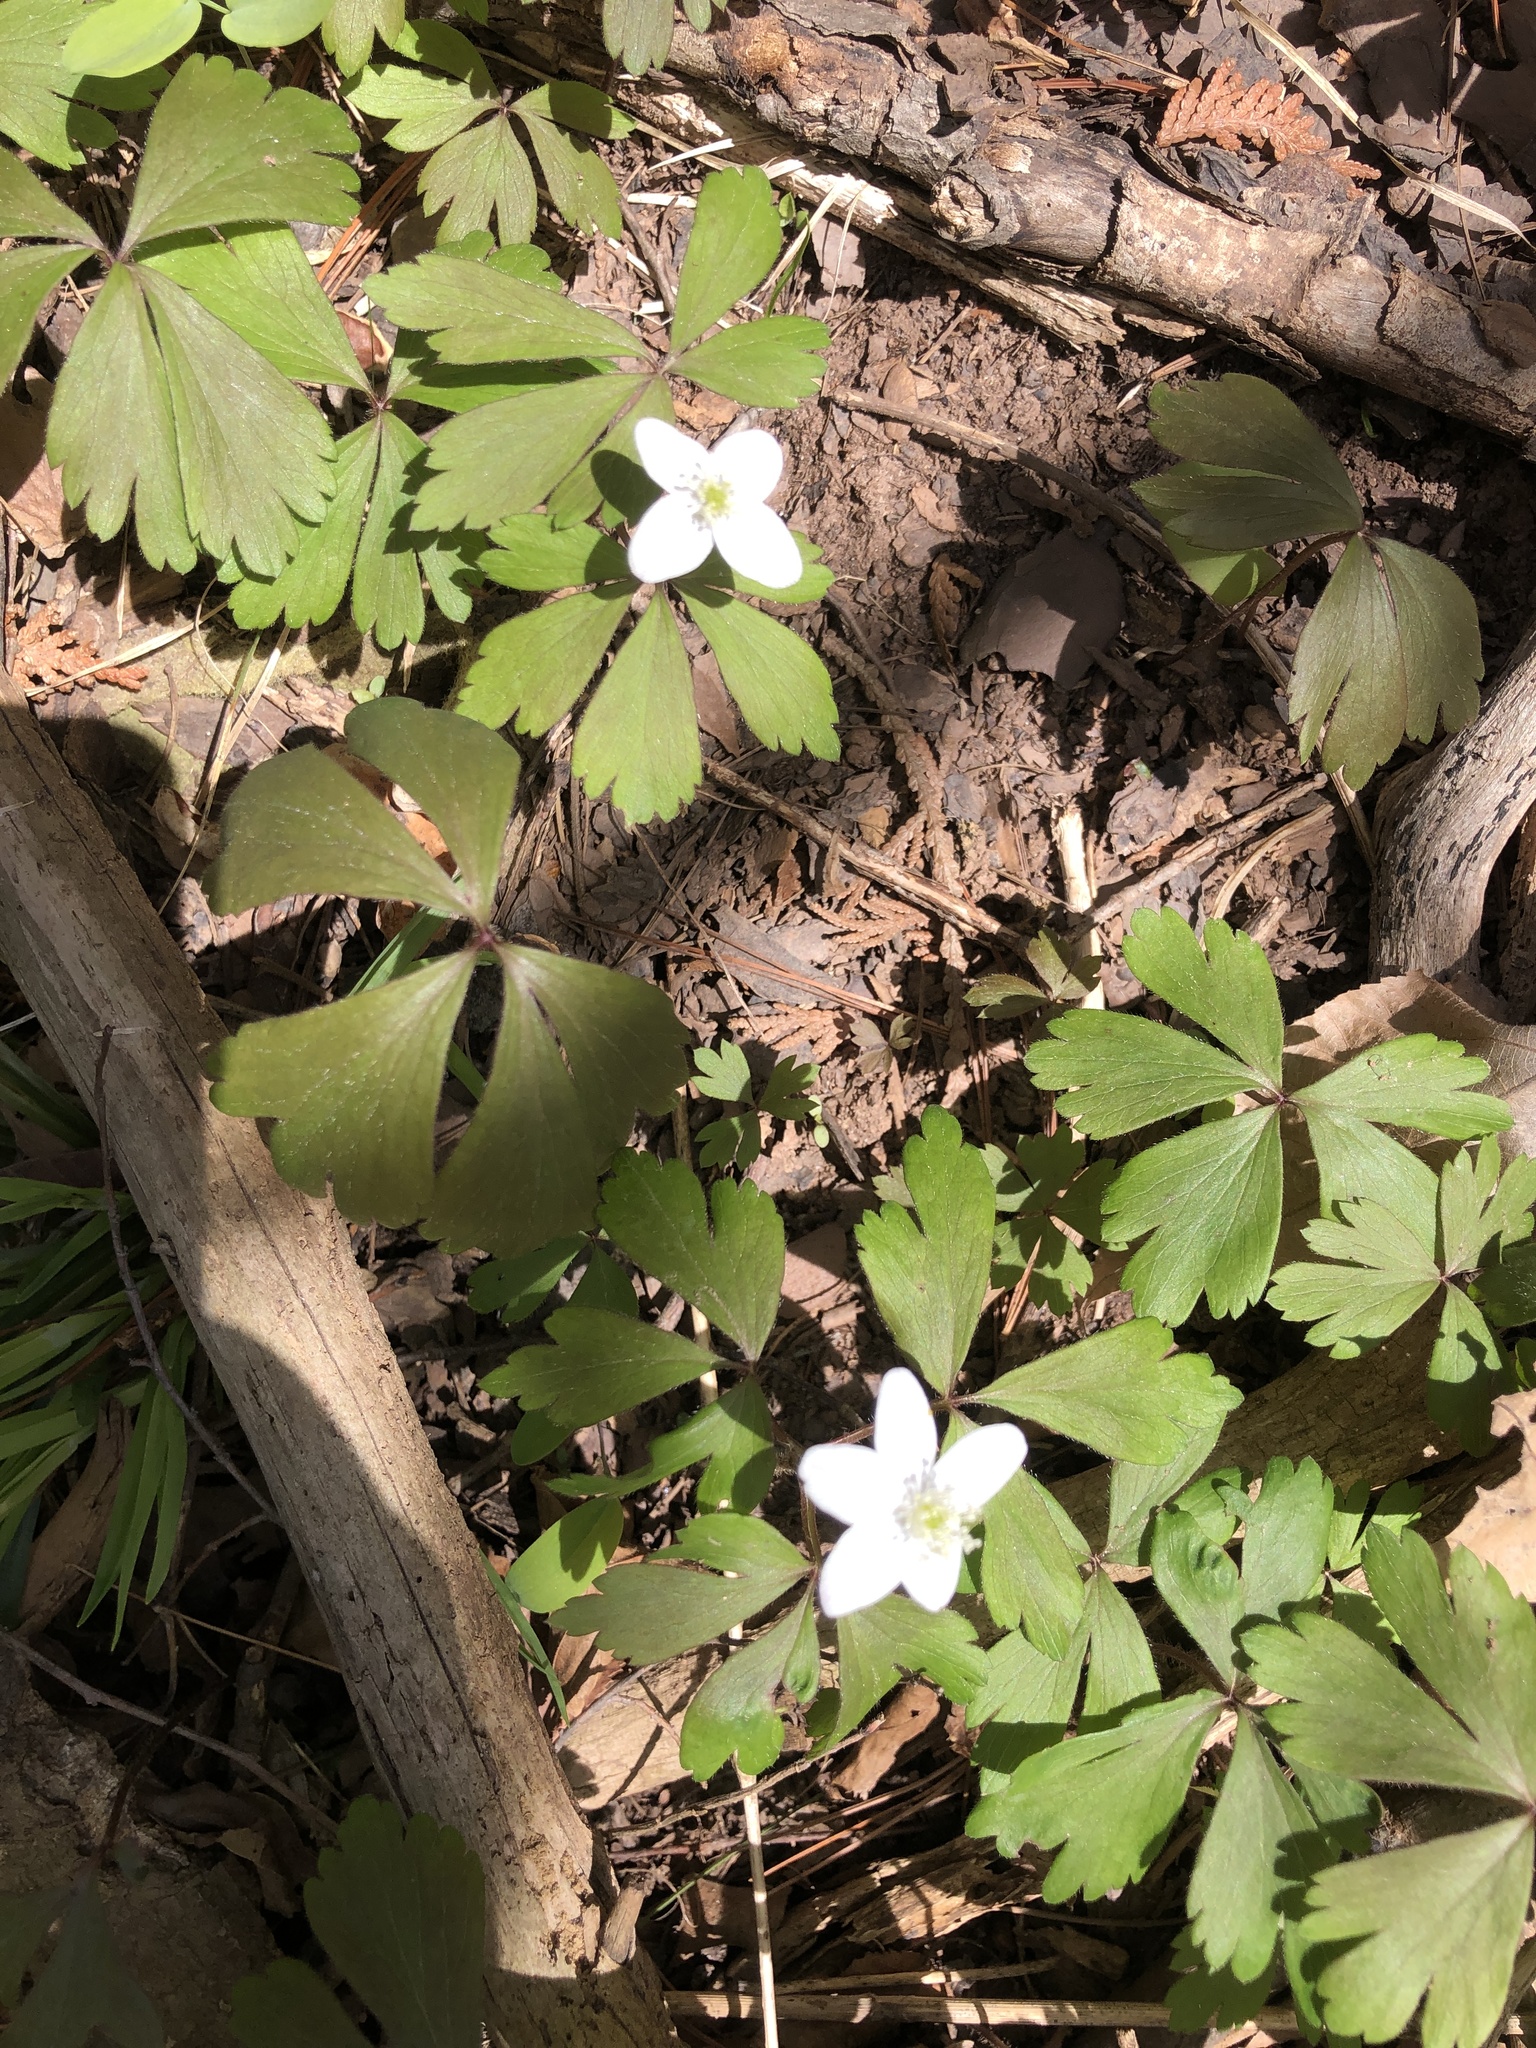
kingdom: Plantae
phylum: Tracheophyta
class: Magnoliopsida
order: Ranunculales
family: Ranunculaceae
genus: Anemone
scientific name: Anemone quinquefolia
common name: Wood anemone
